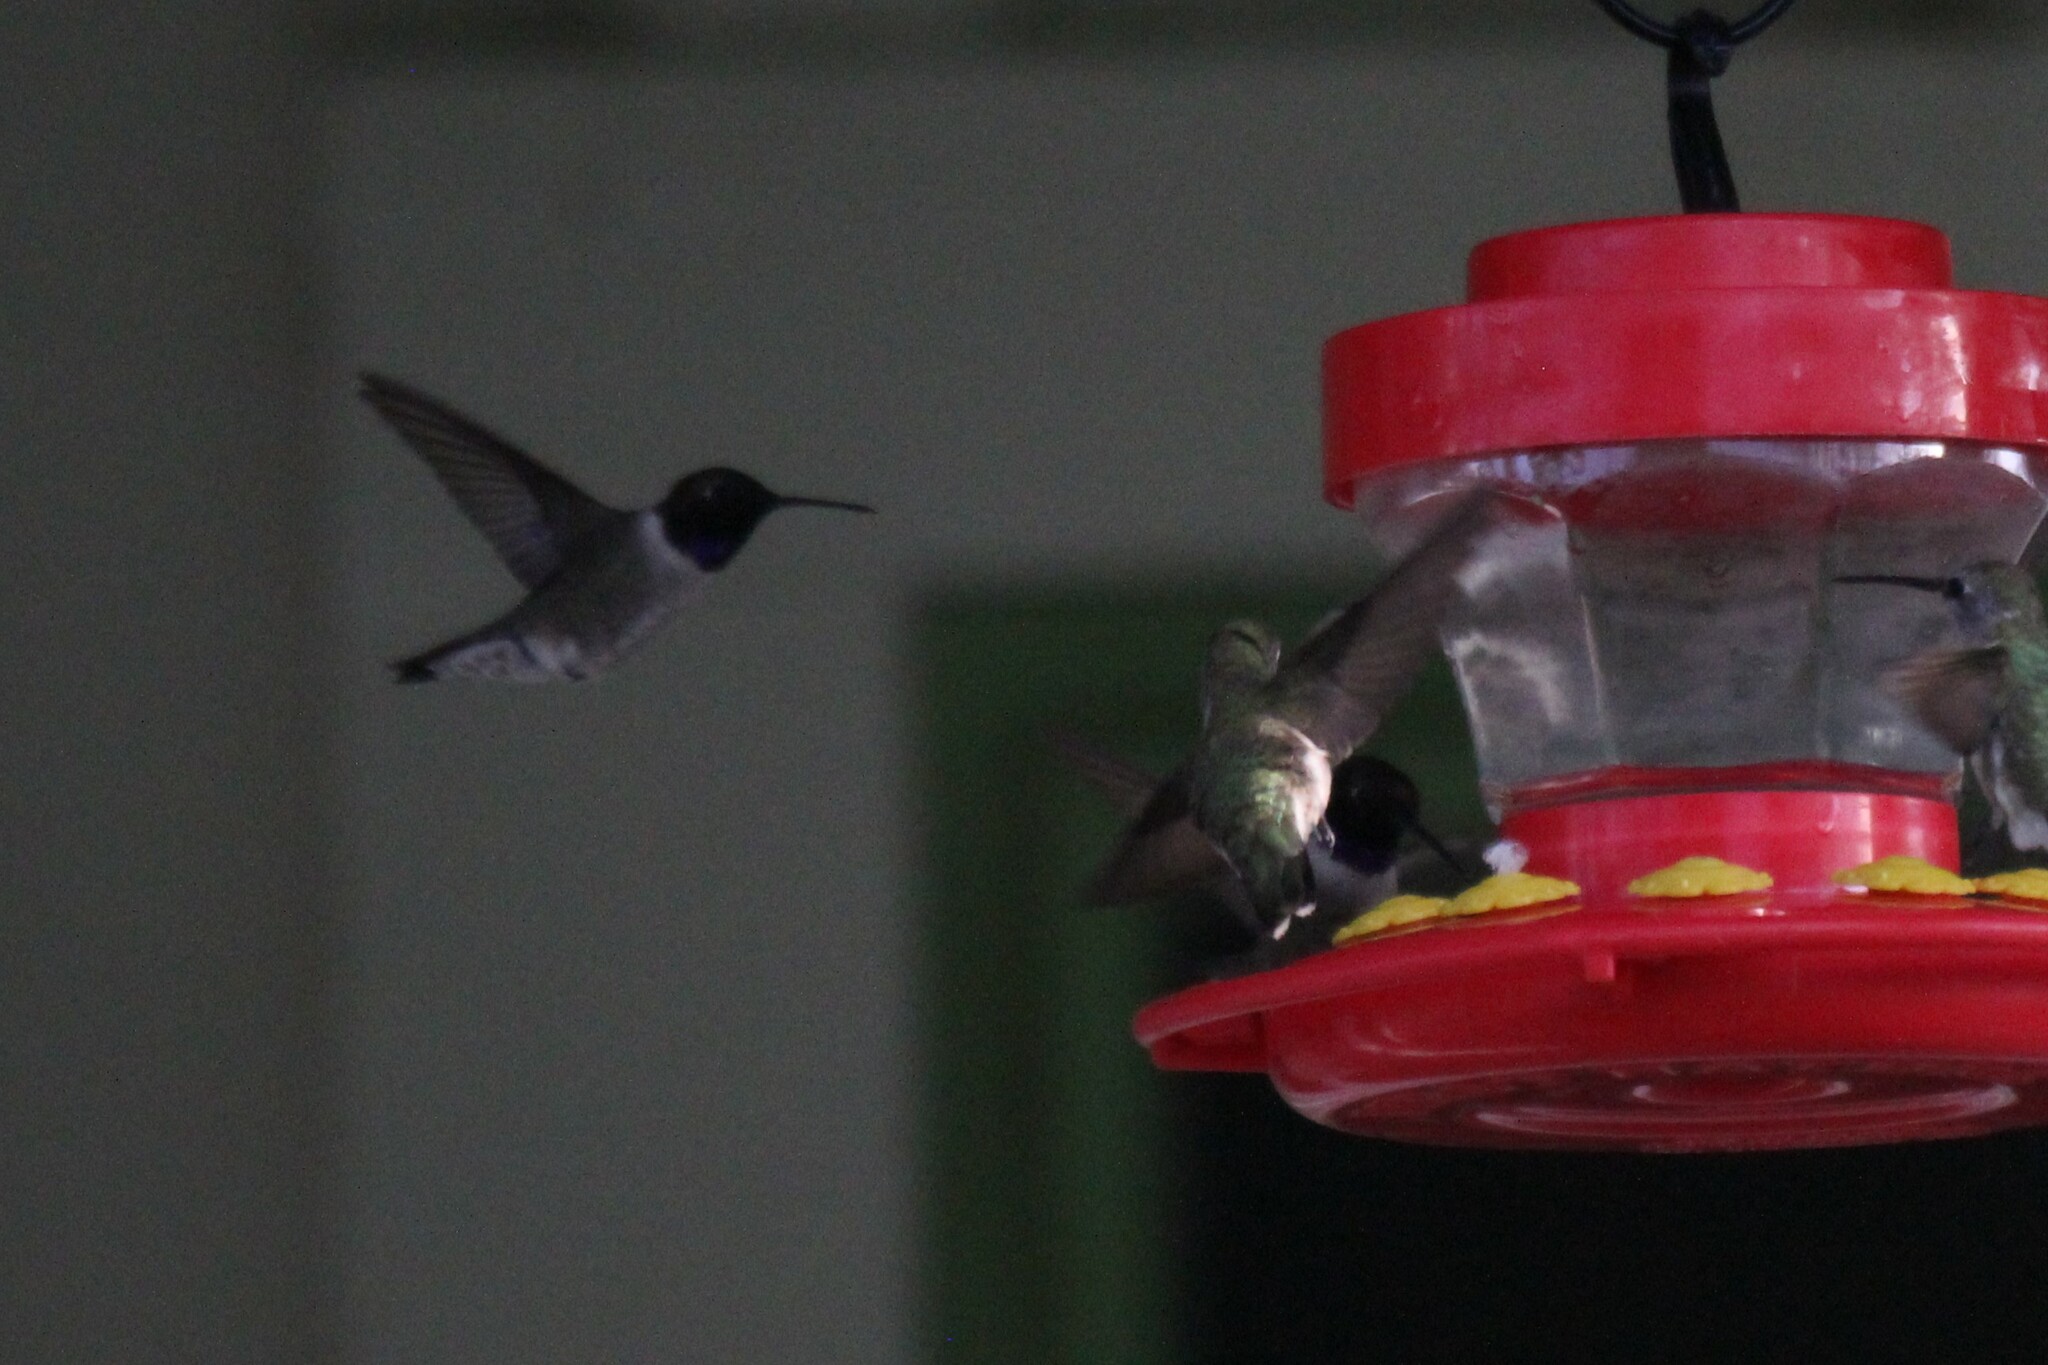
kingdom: Animalia
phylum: Chordata
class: Aves
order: Apodiformes
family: Trochilidae
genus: Archilochus
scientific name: Archilochus alexandri
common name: Black-chinned hummingbird
